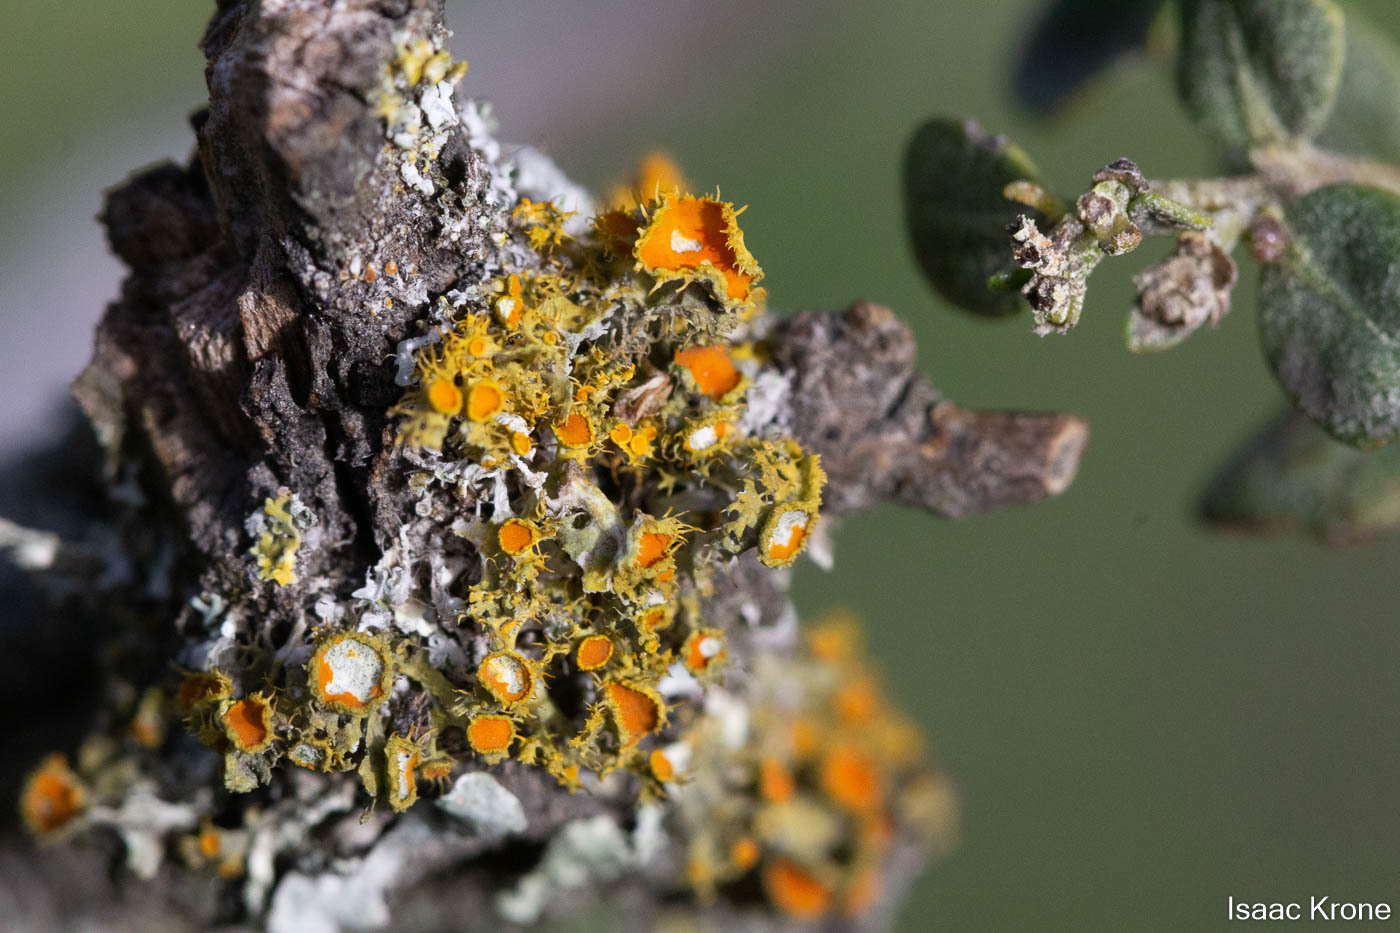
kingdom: Fungi
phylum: Ascomycota
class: Lecanoromycetes
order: Teloschistales
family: Teloschistaceae
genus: Niorma
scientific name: Niorma chrysophthalma
